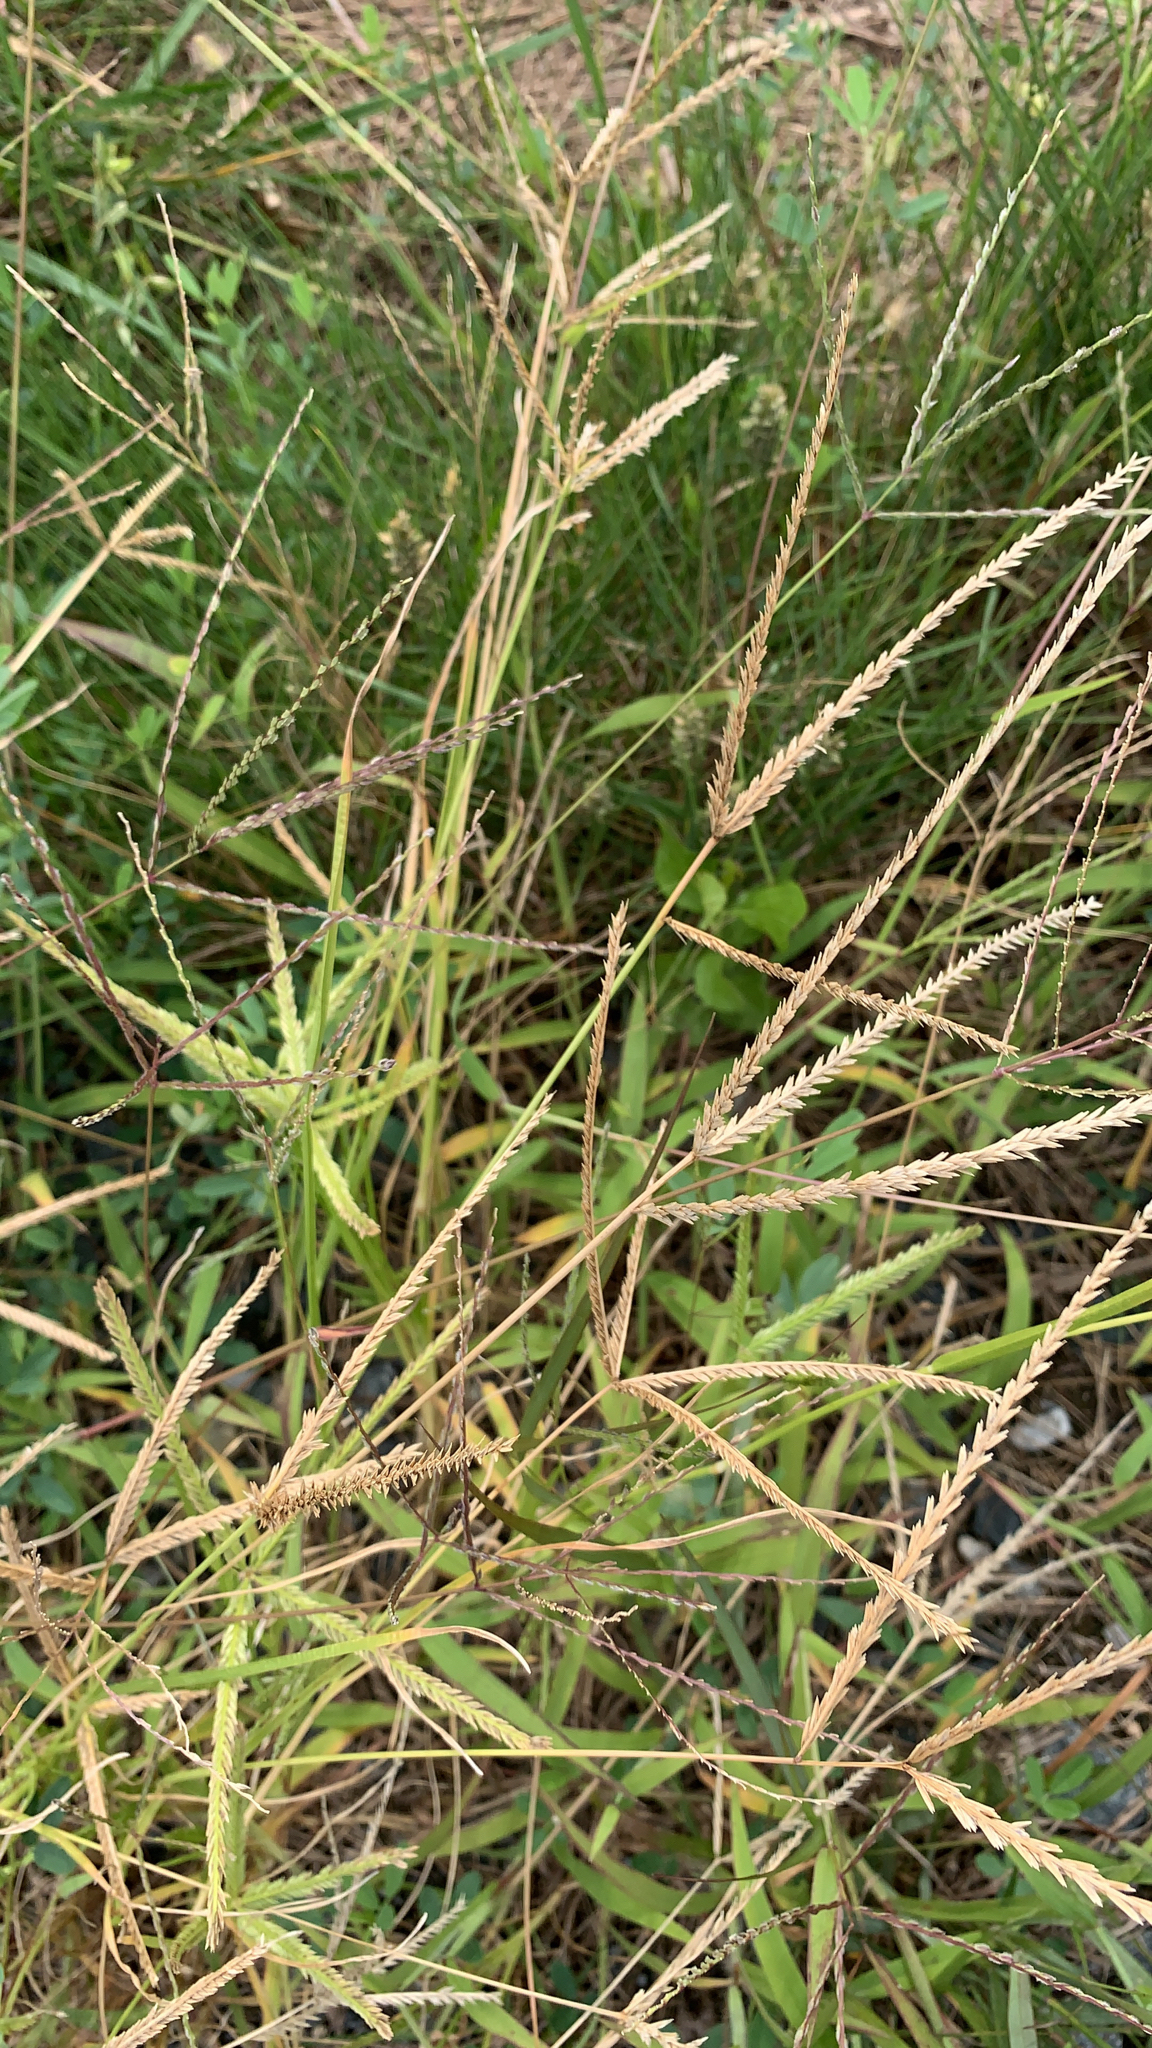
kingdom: Plantae
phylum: Tracheophyta
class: Liliopsida
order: Poales
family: Poaceae
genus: Eleusine
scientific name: Eleusine indica
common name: Yard-grass
